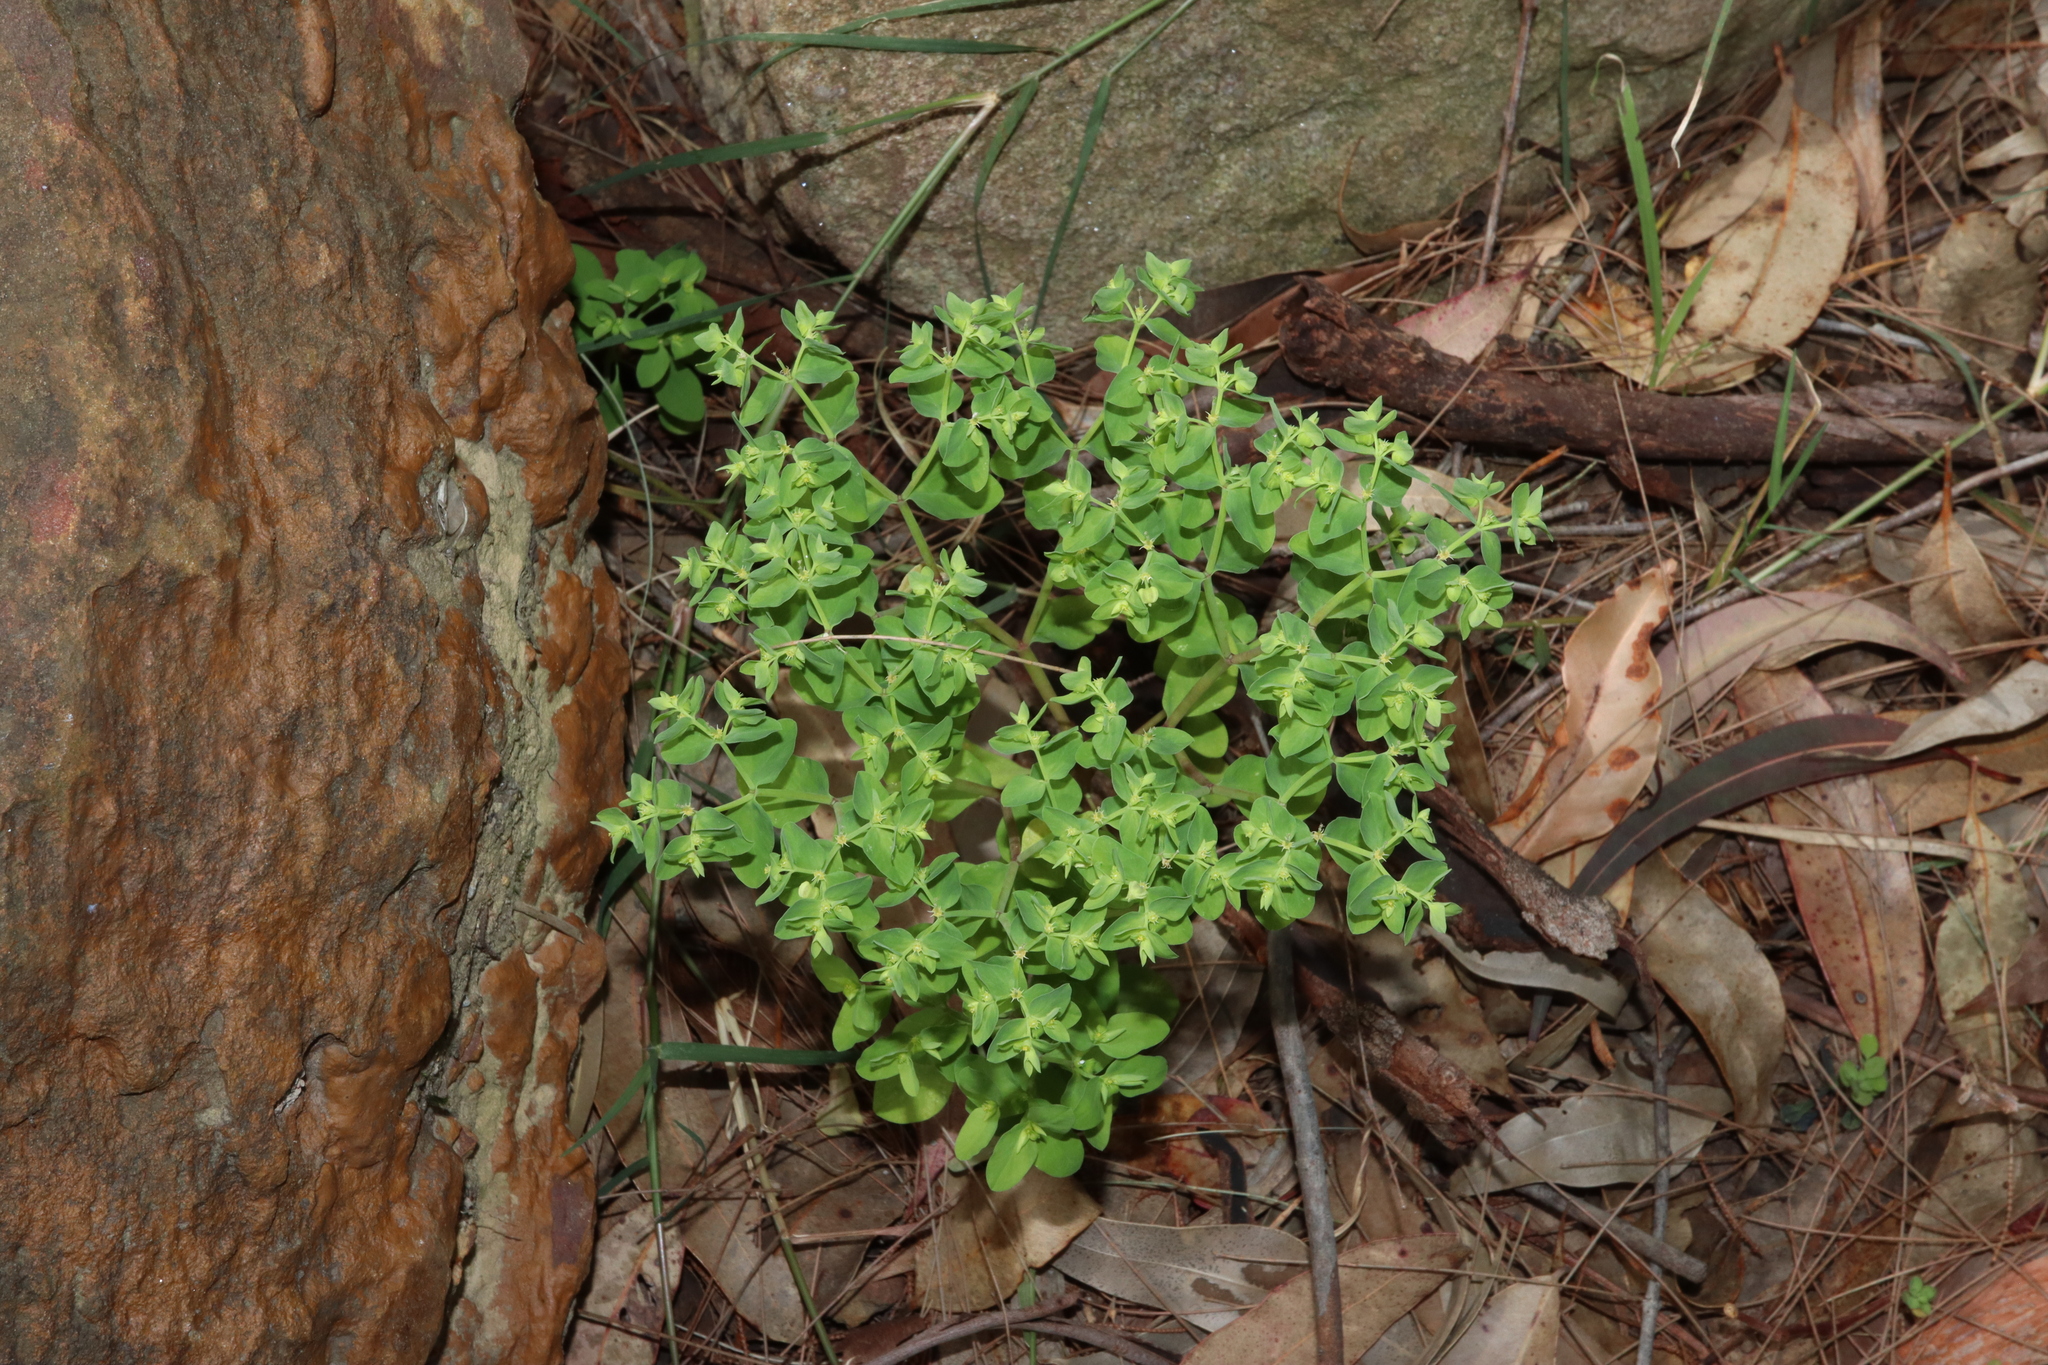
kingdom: Plantae
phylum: Tracheophyta
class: Magnoliopsida
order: Malpighiales
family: Euphorbiaceae
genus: Euphorbia
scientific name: Euphorbia peplus
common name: Petty spurge
